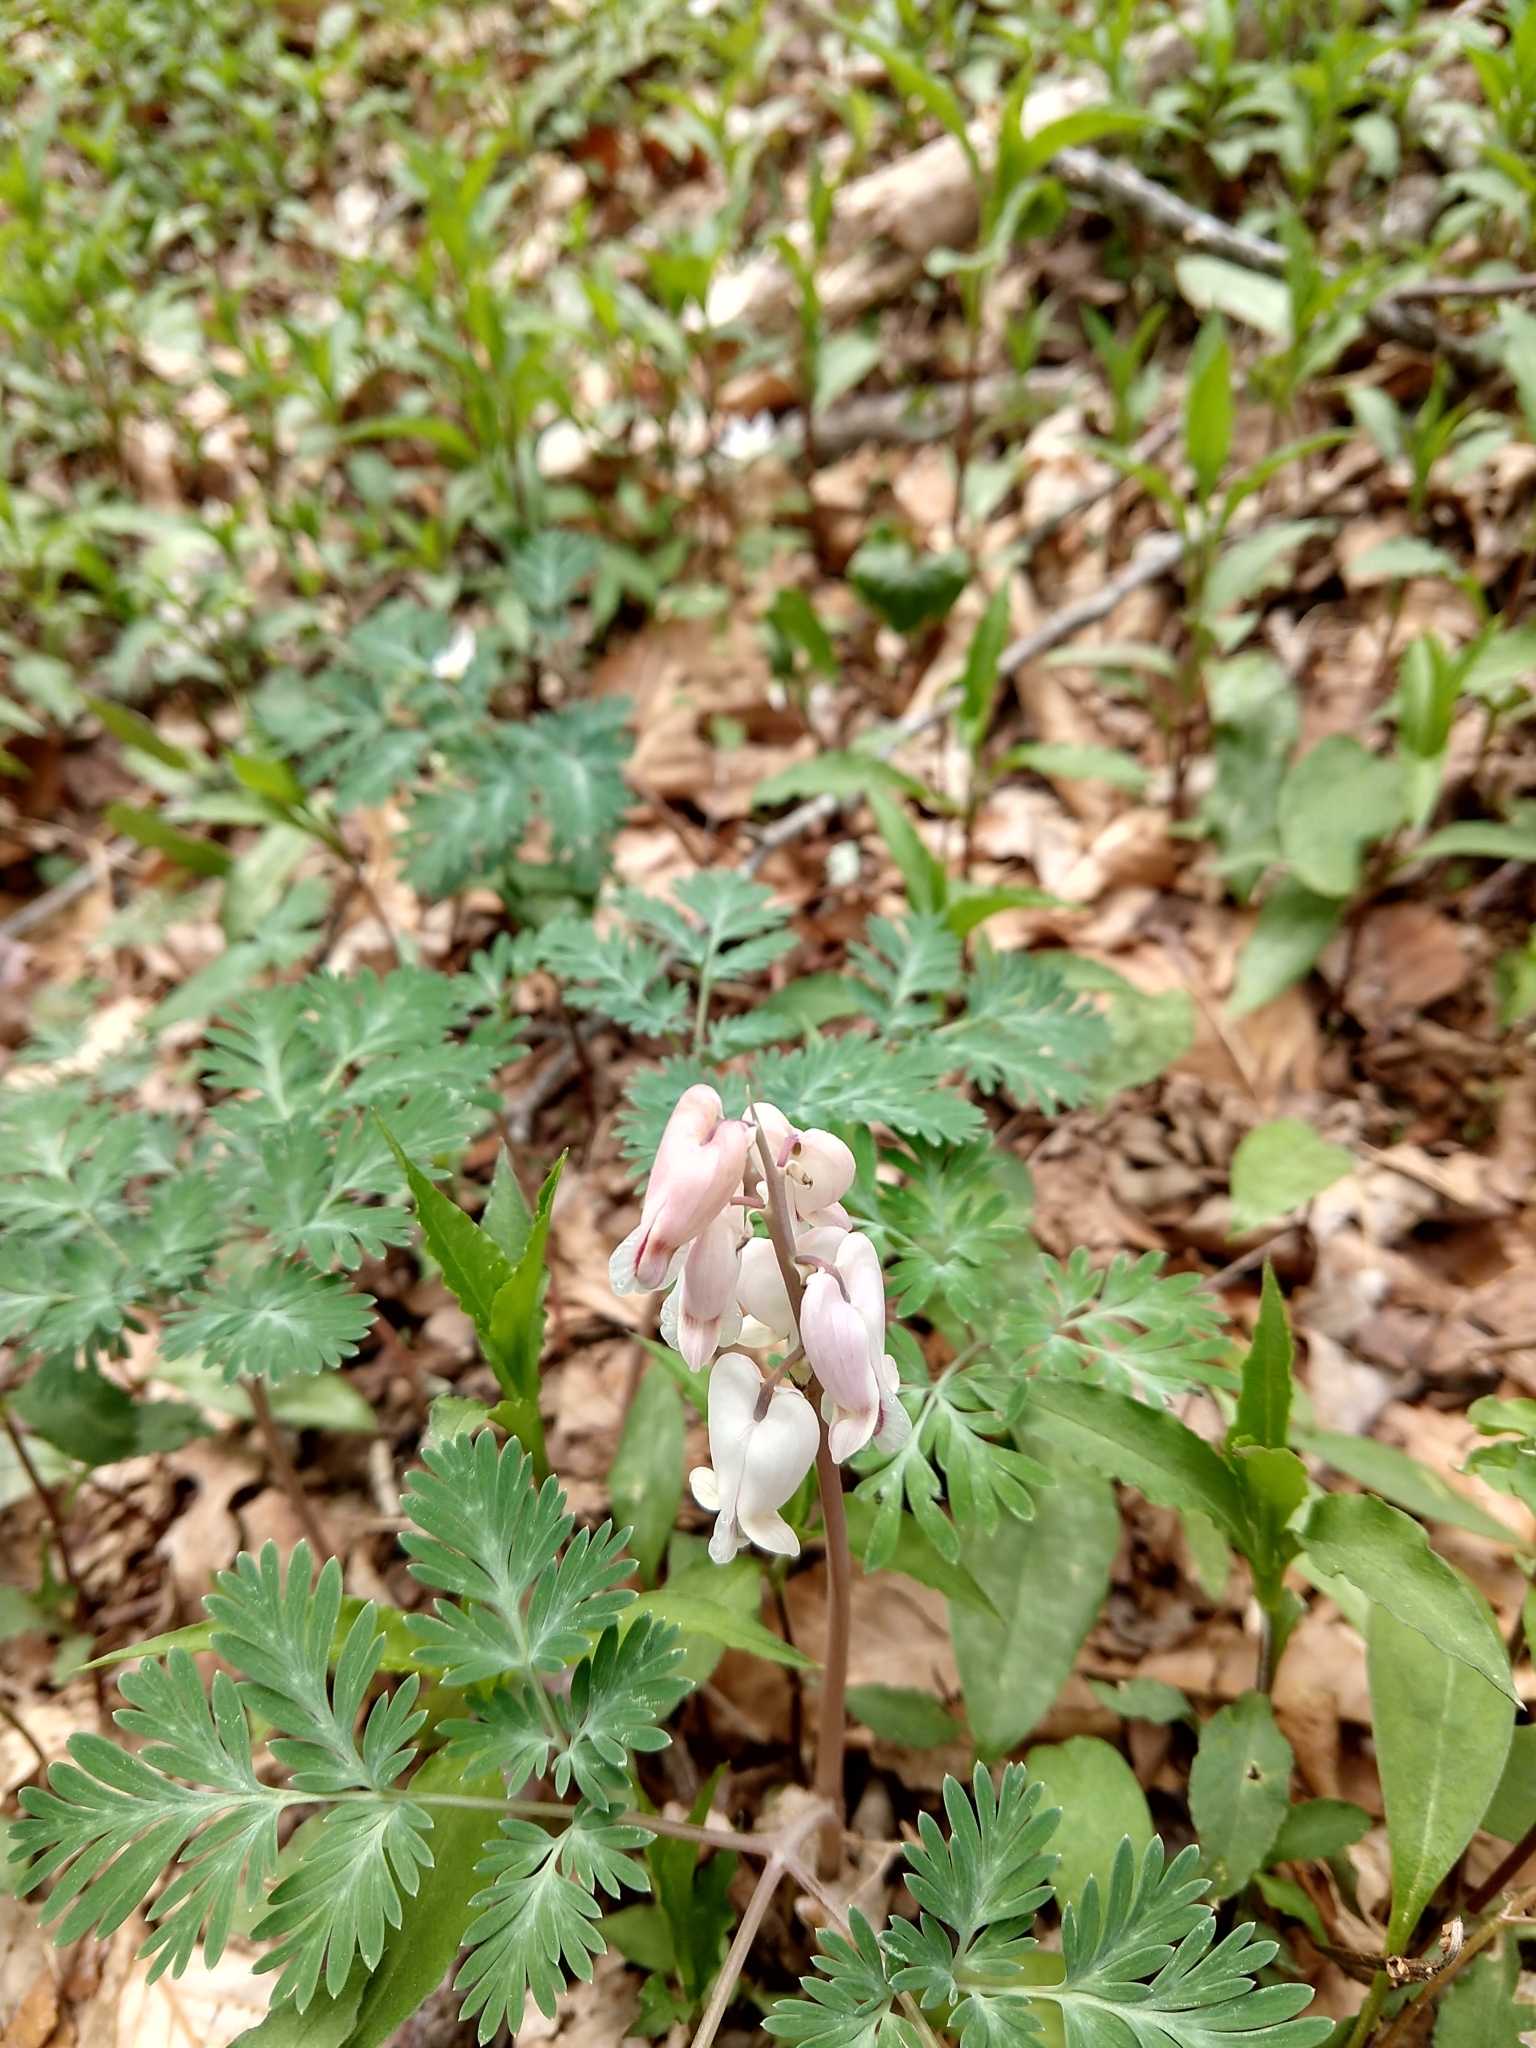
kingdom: Plantae
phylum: Tracheophyta
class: Magnoliopsida
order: Ranunculales
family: Papaveraceae
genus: Dicentra
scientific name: Dicentra canadensis
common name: Squirrel-corn
